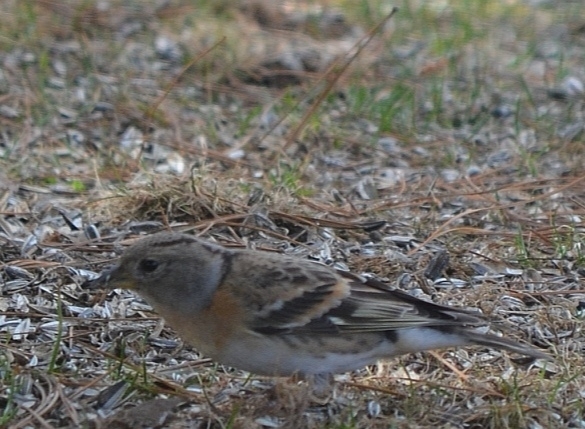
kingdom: Animalia
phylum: Chordata
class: Aves
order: Passeriformes
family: Fringillidae
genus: Fringilla
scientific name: Fringilla montifringilla
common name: Brambling
